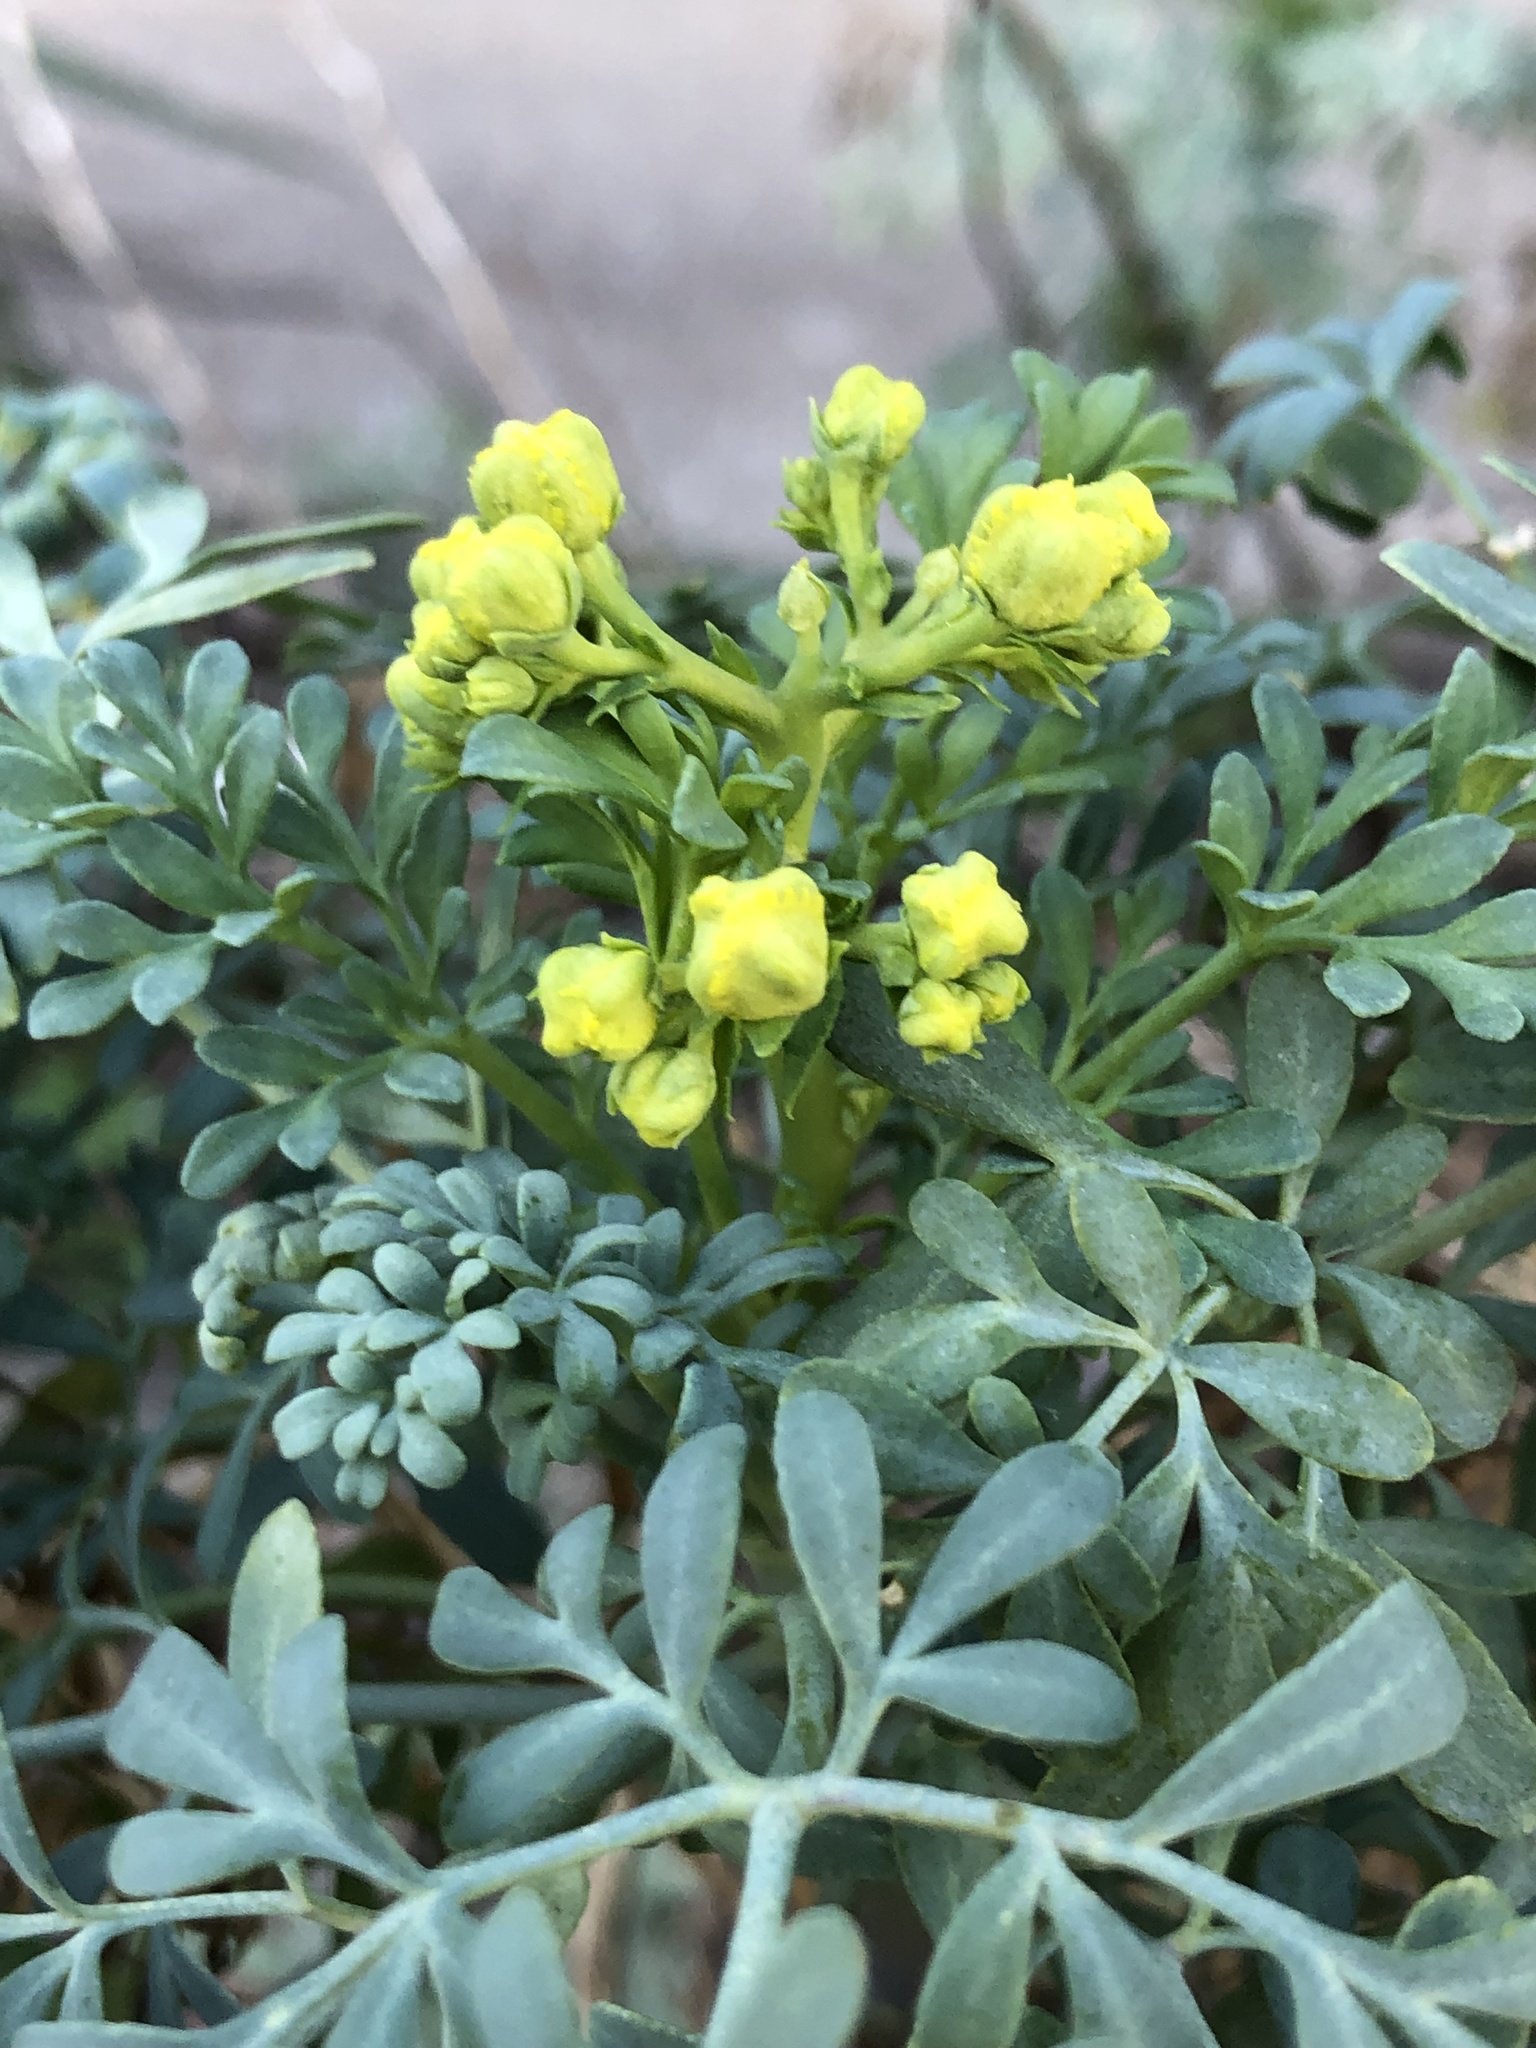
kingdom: Plantae
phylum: Tracheophyta
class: Magnoliopsida
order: Sapindales
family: Rutaceae
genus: Ruta
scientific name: Ruta graveolens
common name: Common rue
